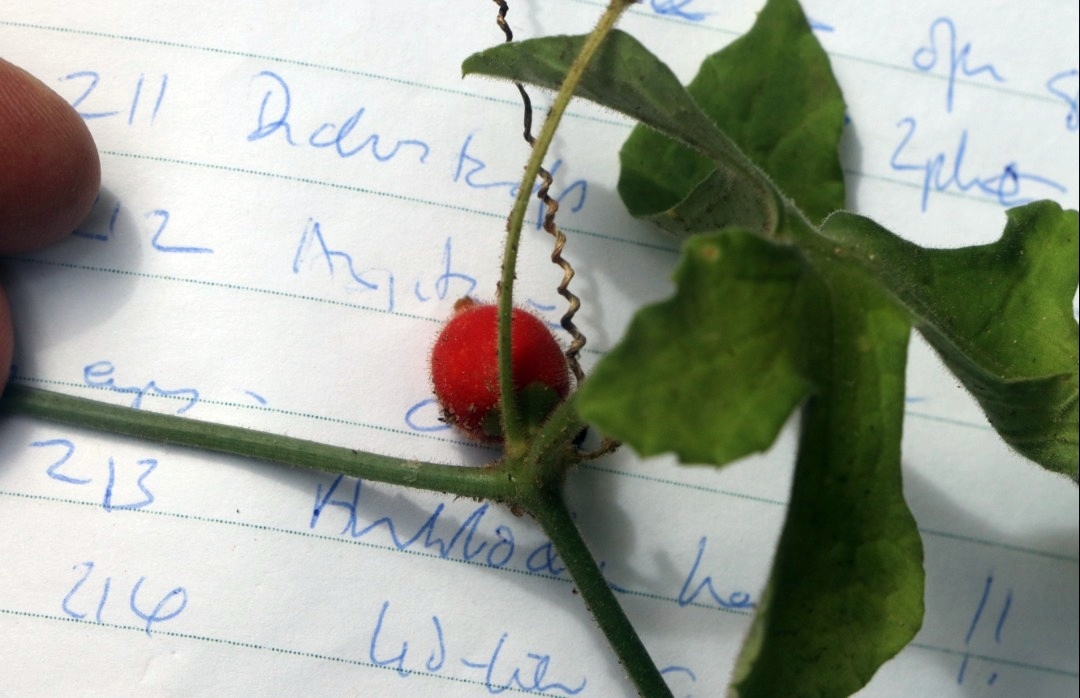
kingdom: Plantae
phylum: Tracheophyta
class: Magnoliopsida
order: Cucurbitales
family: Cucurbitaceae
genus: Corallocarpus
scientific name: Corallocarpus boehmii
